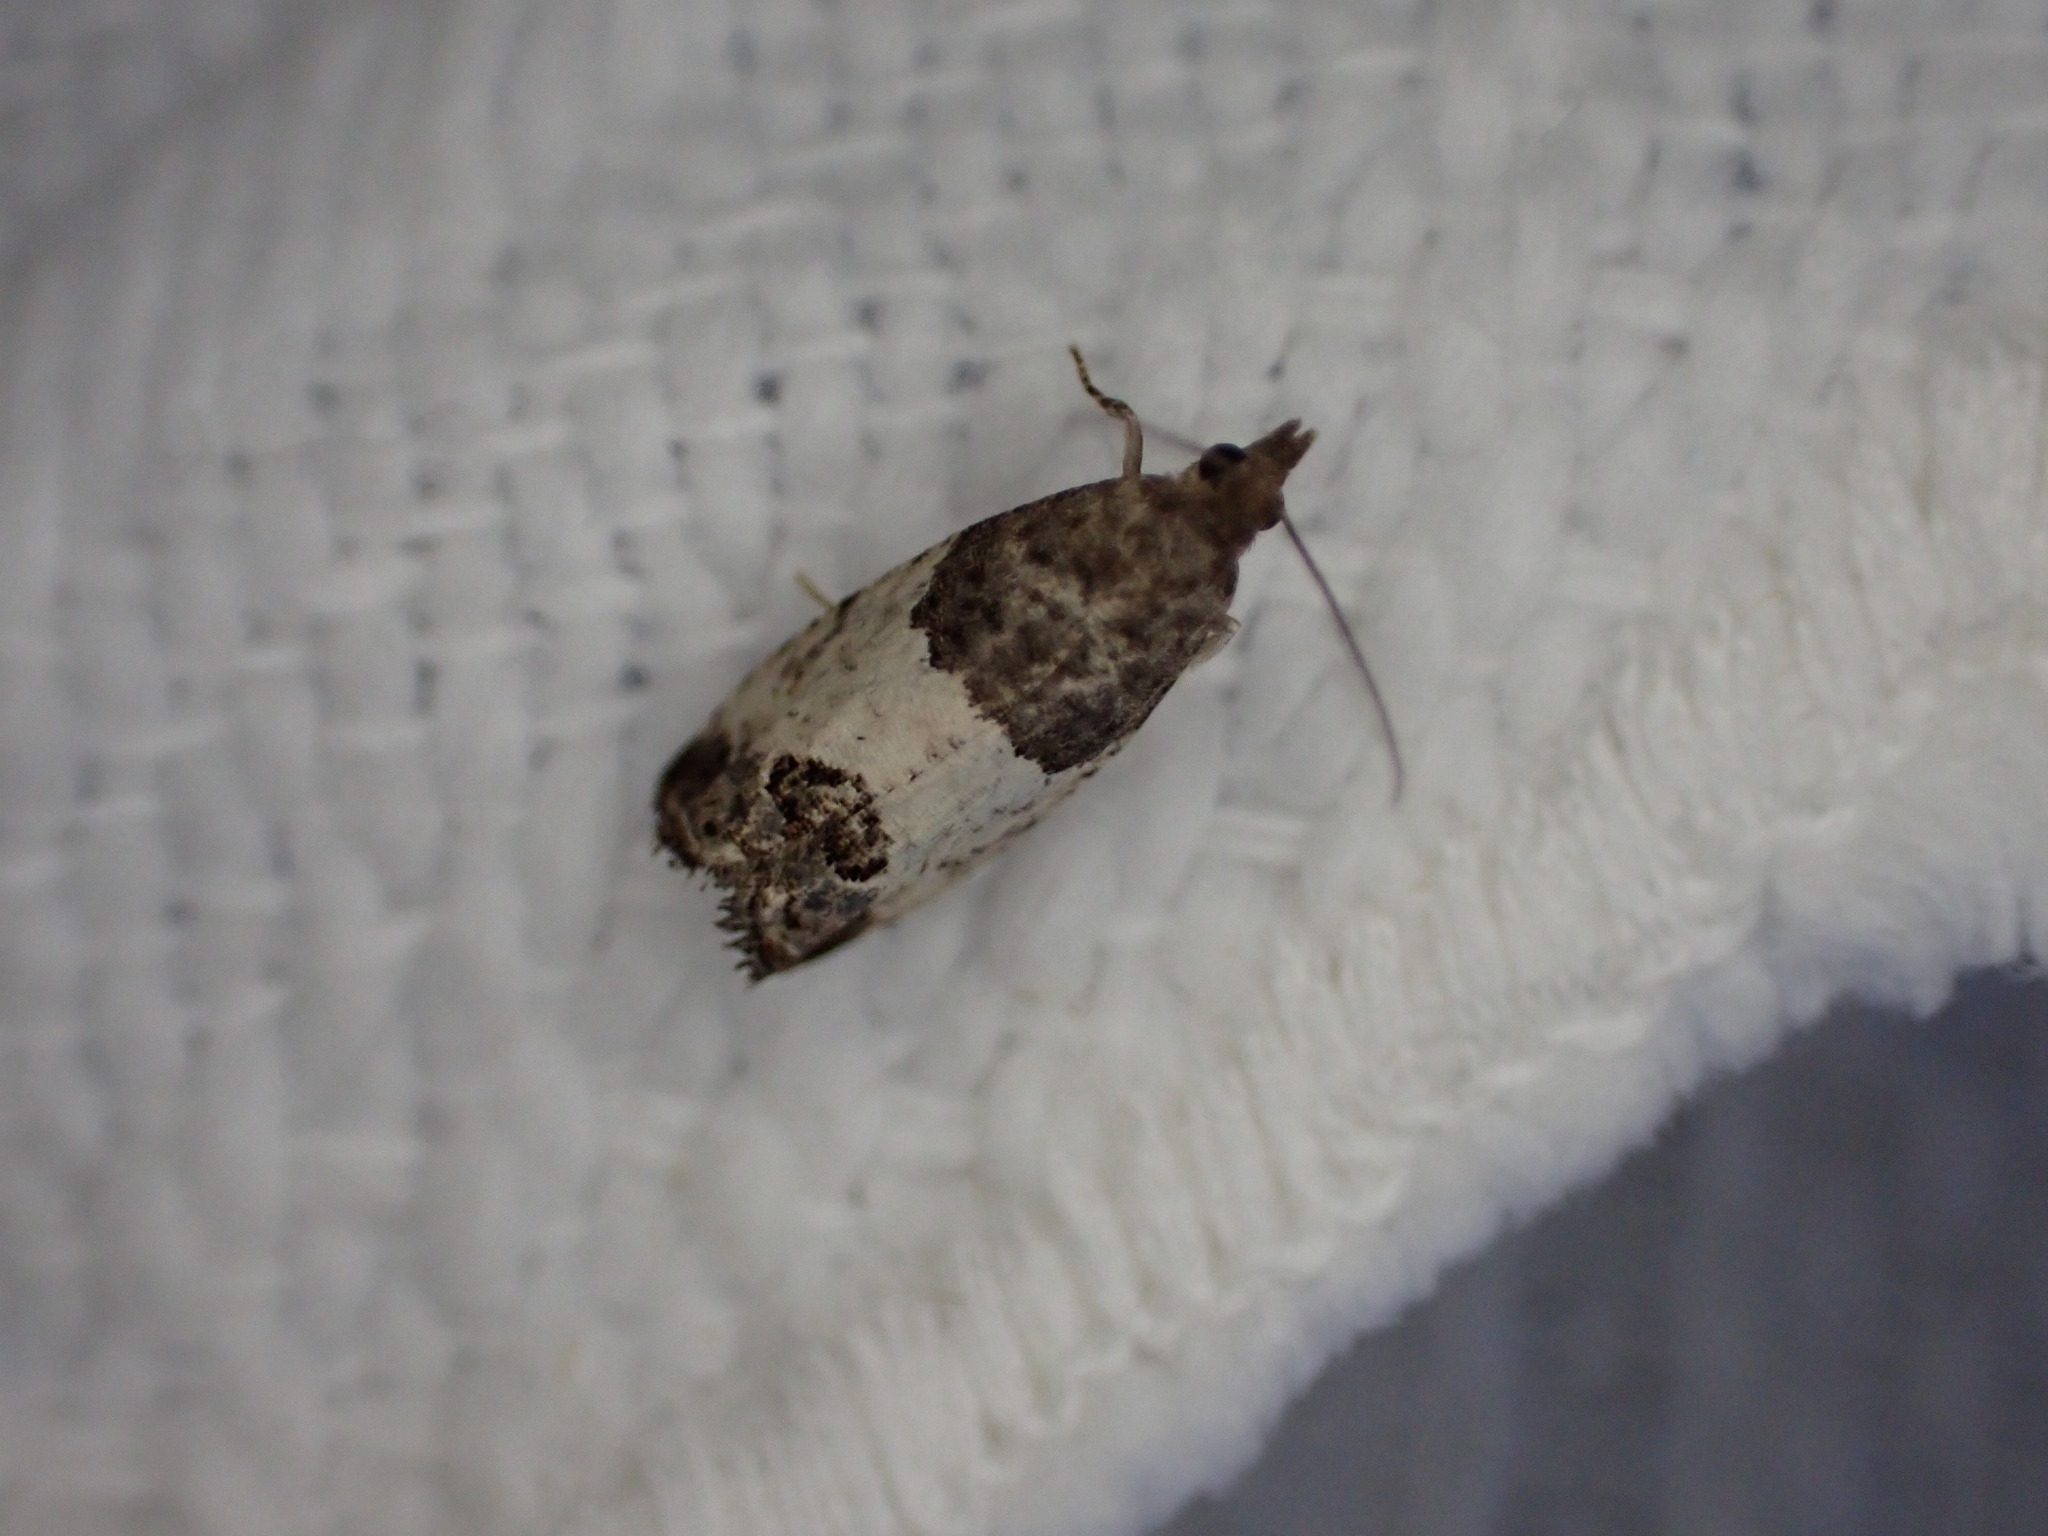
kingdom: Animalia
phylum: Arthropoda
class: Insecta
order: Lepidoptera
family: Tortricidae
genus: Spilonota
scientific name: Spilonota ocellana
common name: Bud moth
